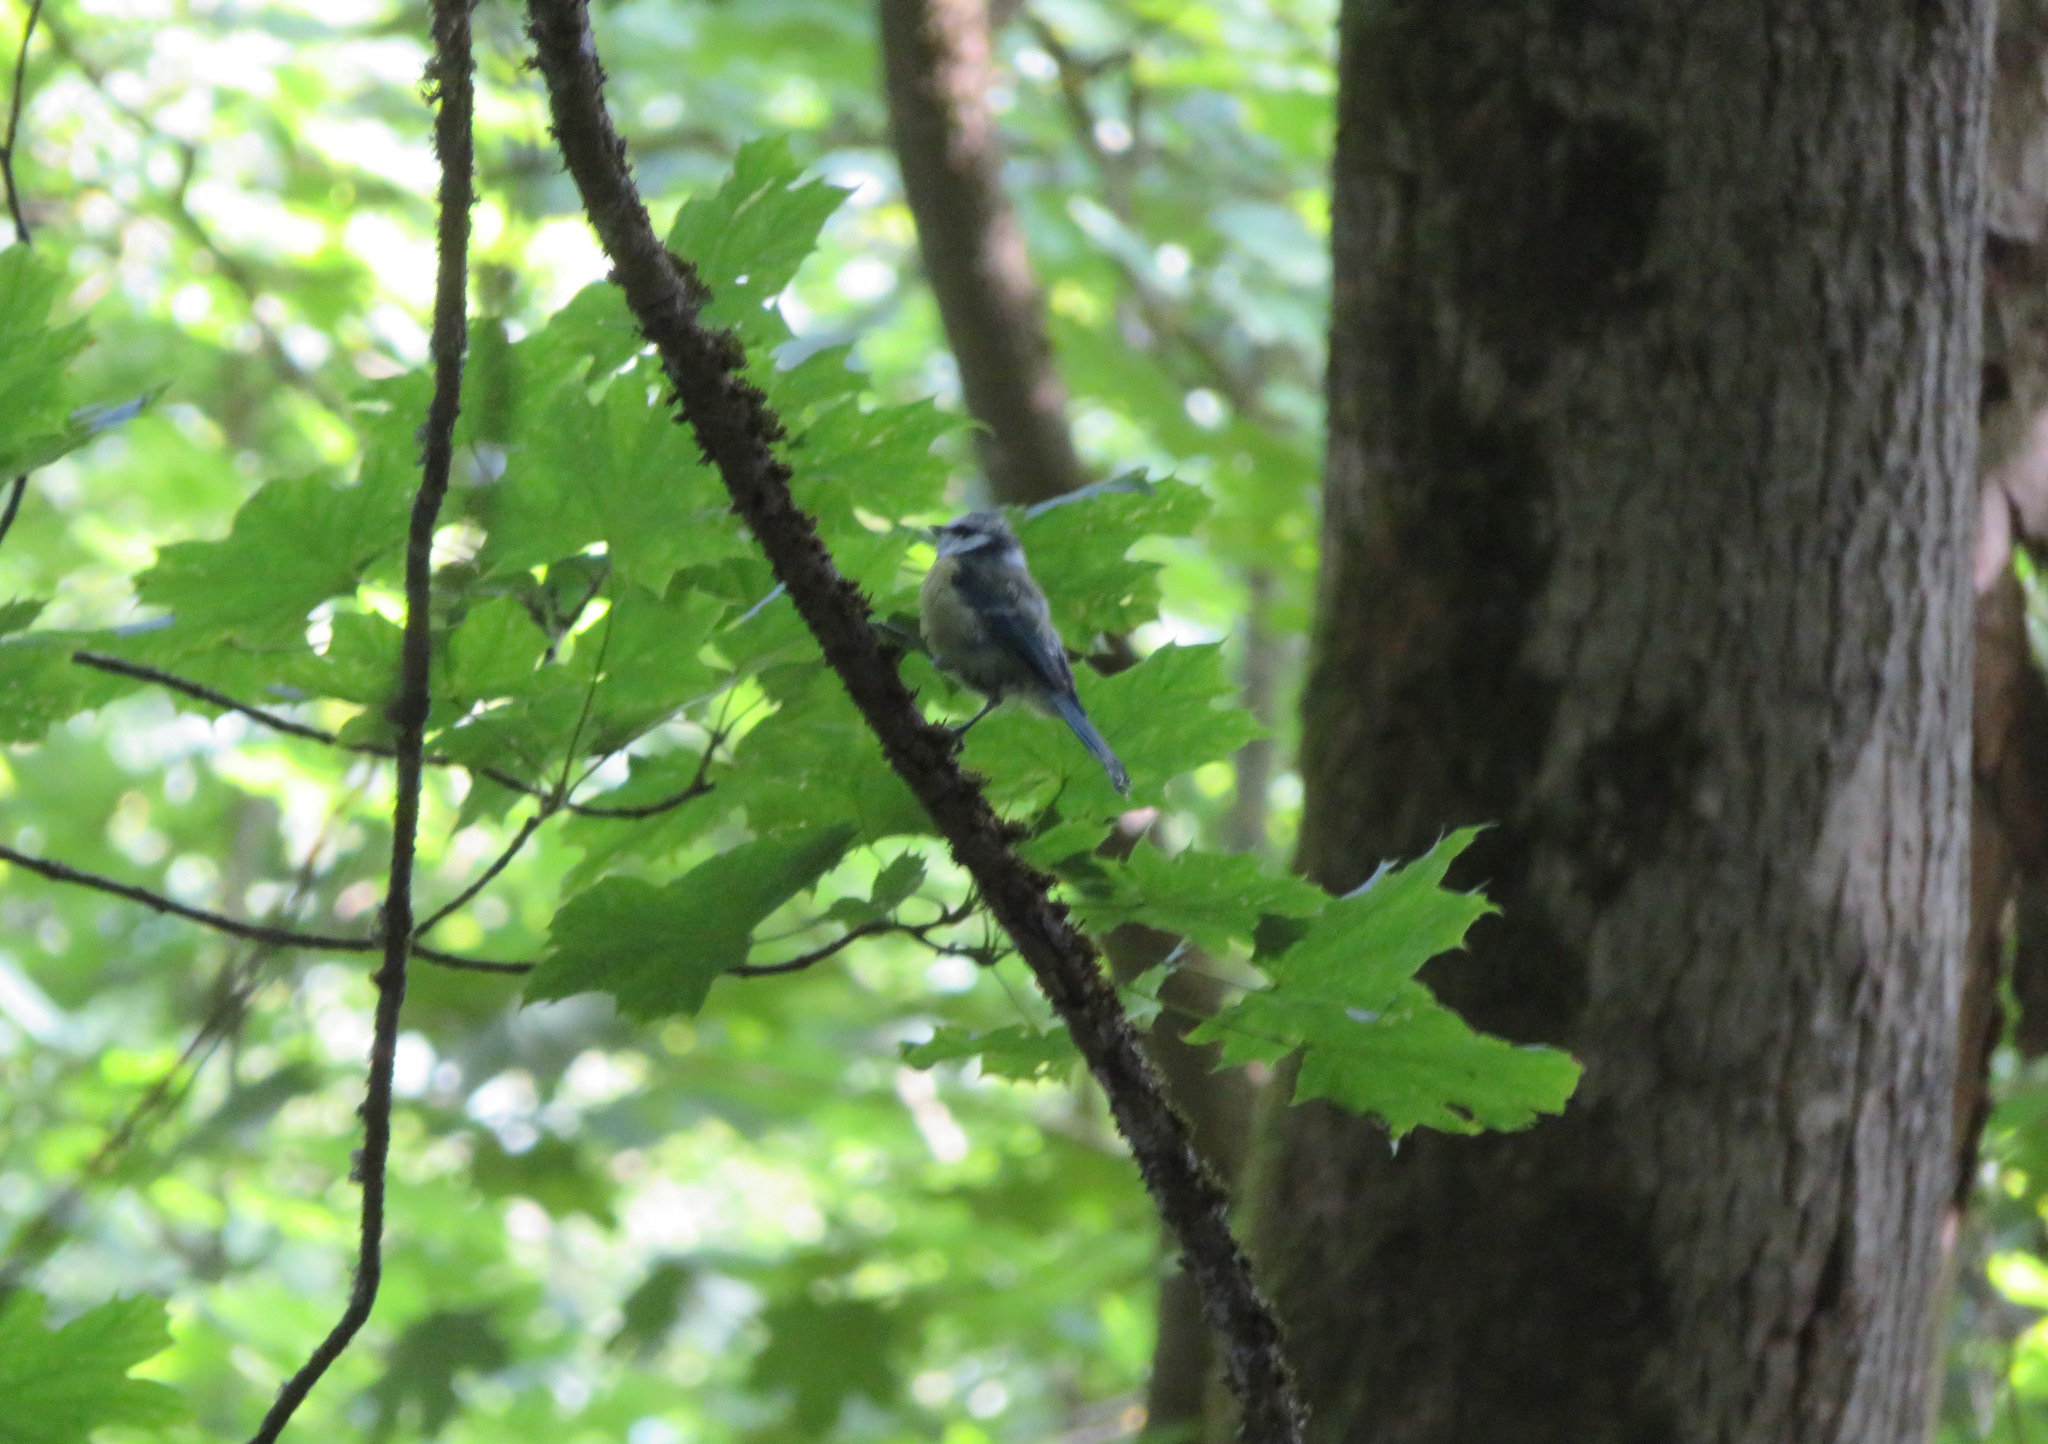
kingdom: Animalia
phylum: Chordata
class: Aves
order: Passeriformes
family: Paridae
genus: Cyanistes
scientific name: Cyanistes caeruleus
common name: Eurasian blue tit
